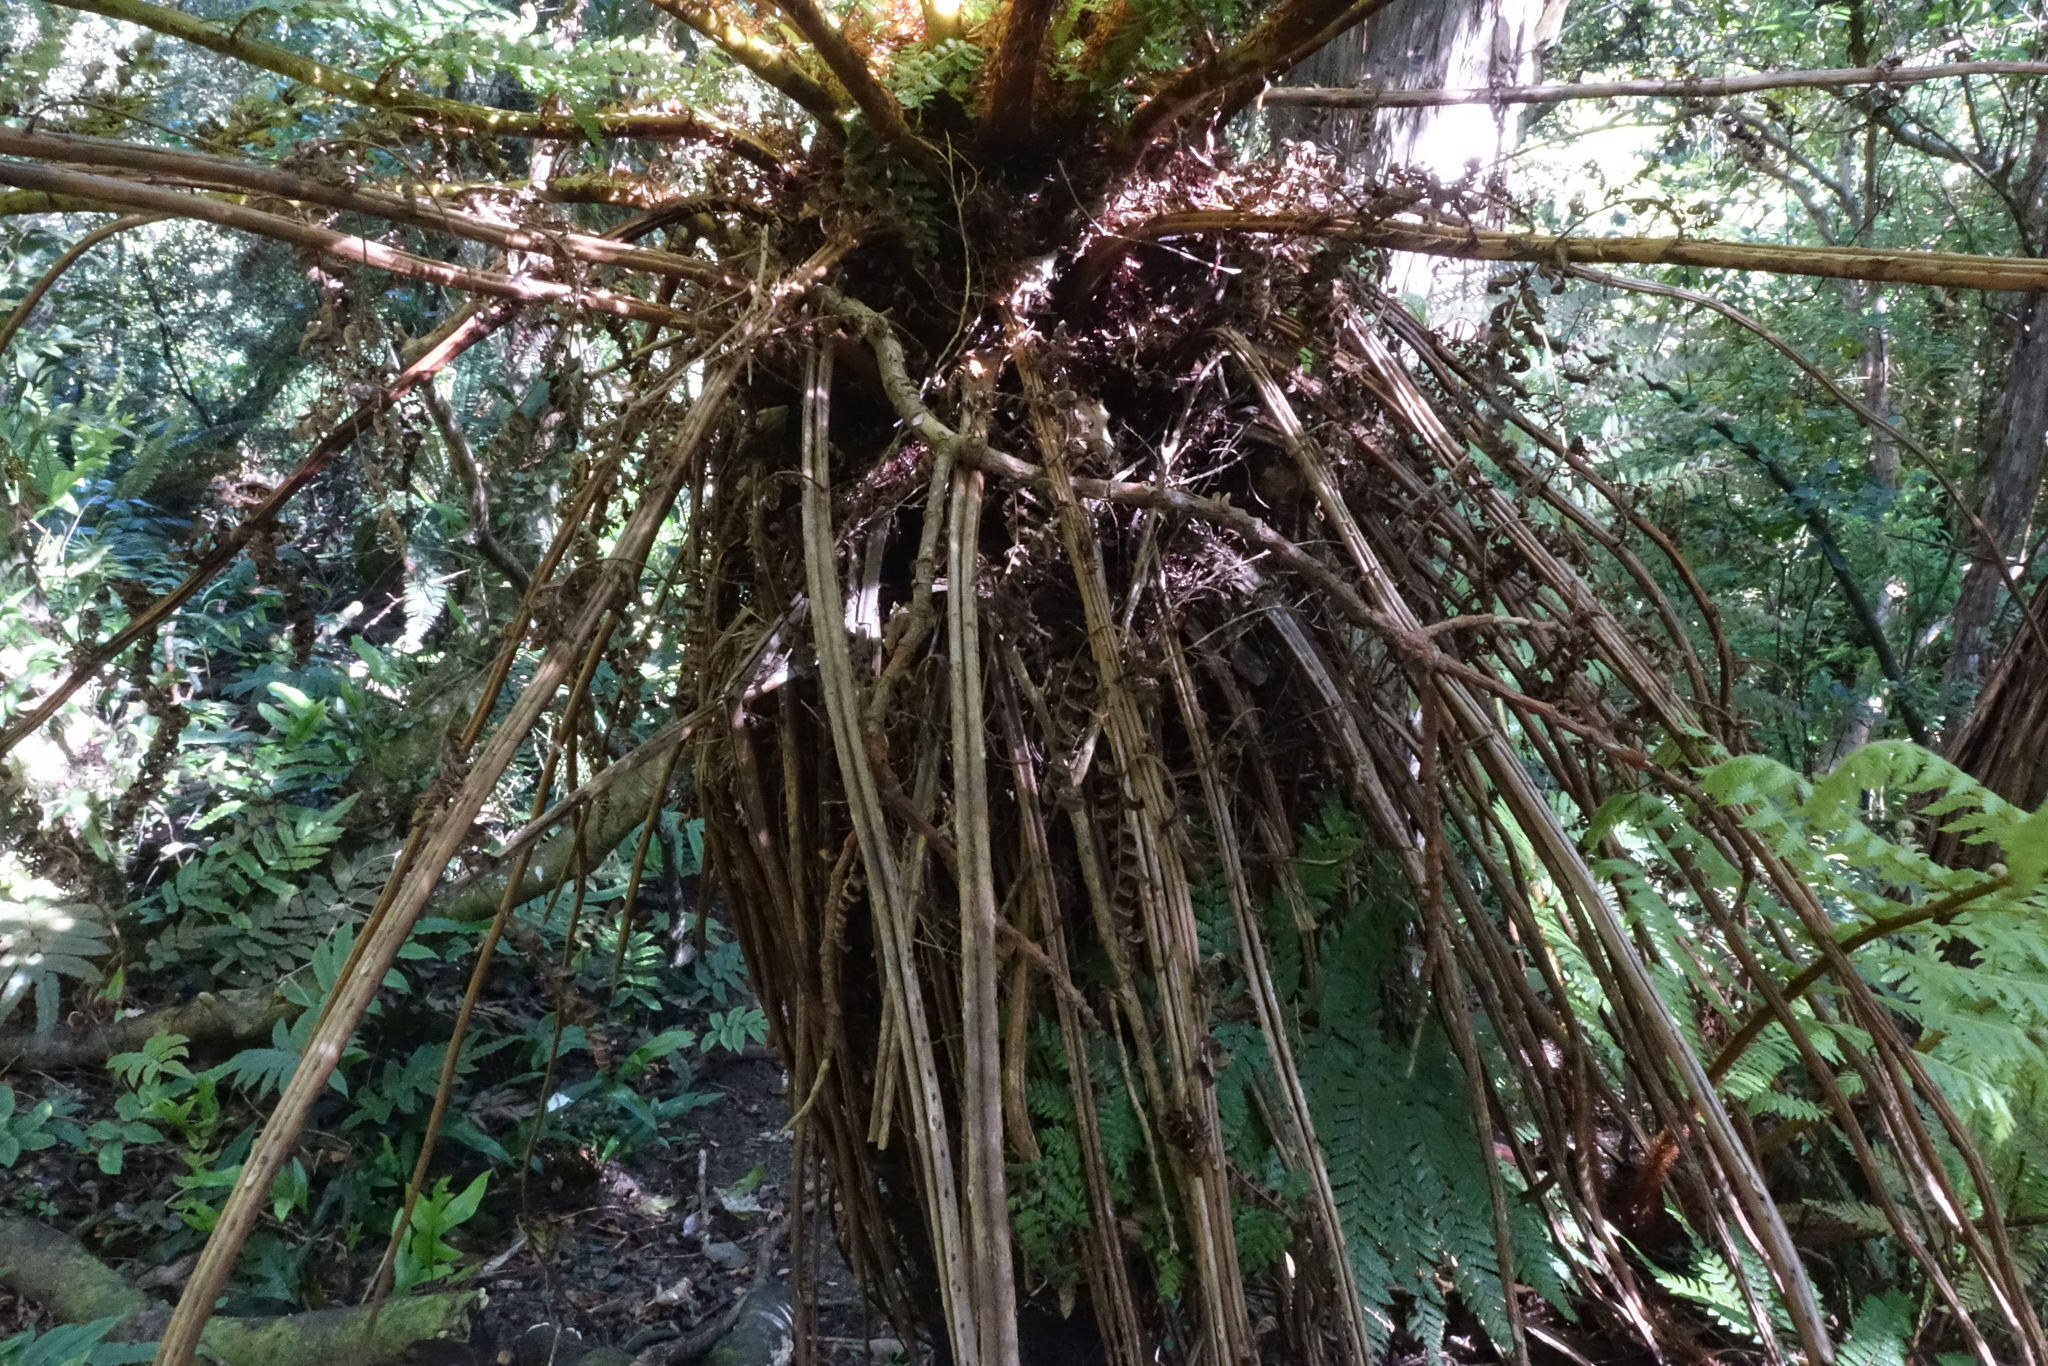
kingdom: Plantae
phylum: Tracheophyta
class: Polypodiopsida
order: Cyatheales
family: Cyatheaceae
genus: Alsophila
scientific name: Alsophila smithii
